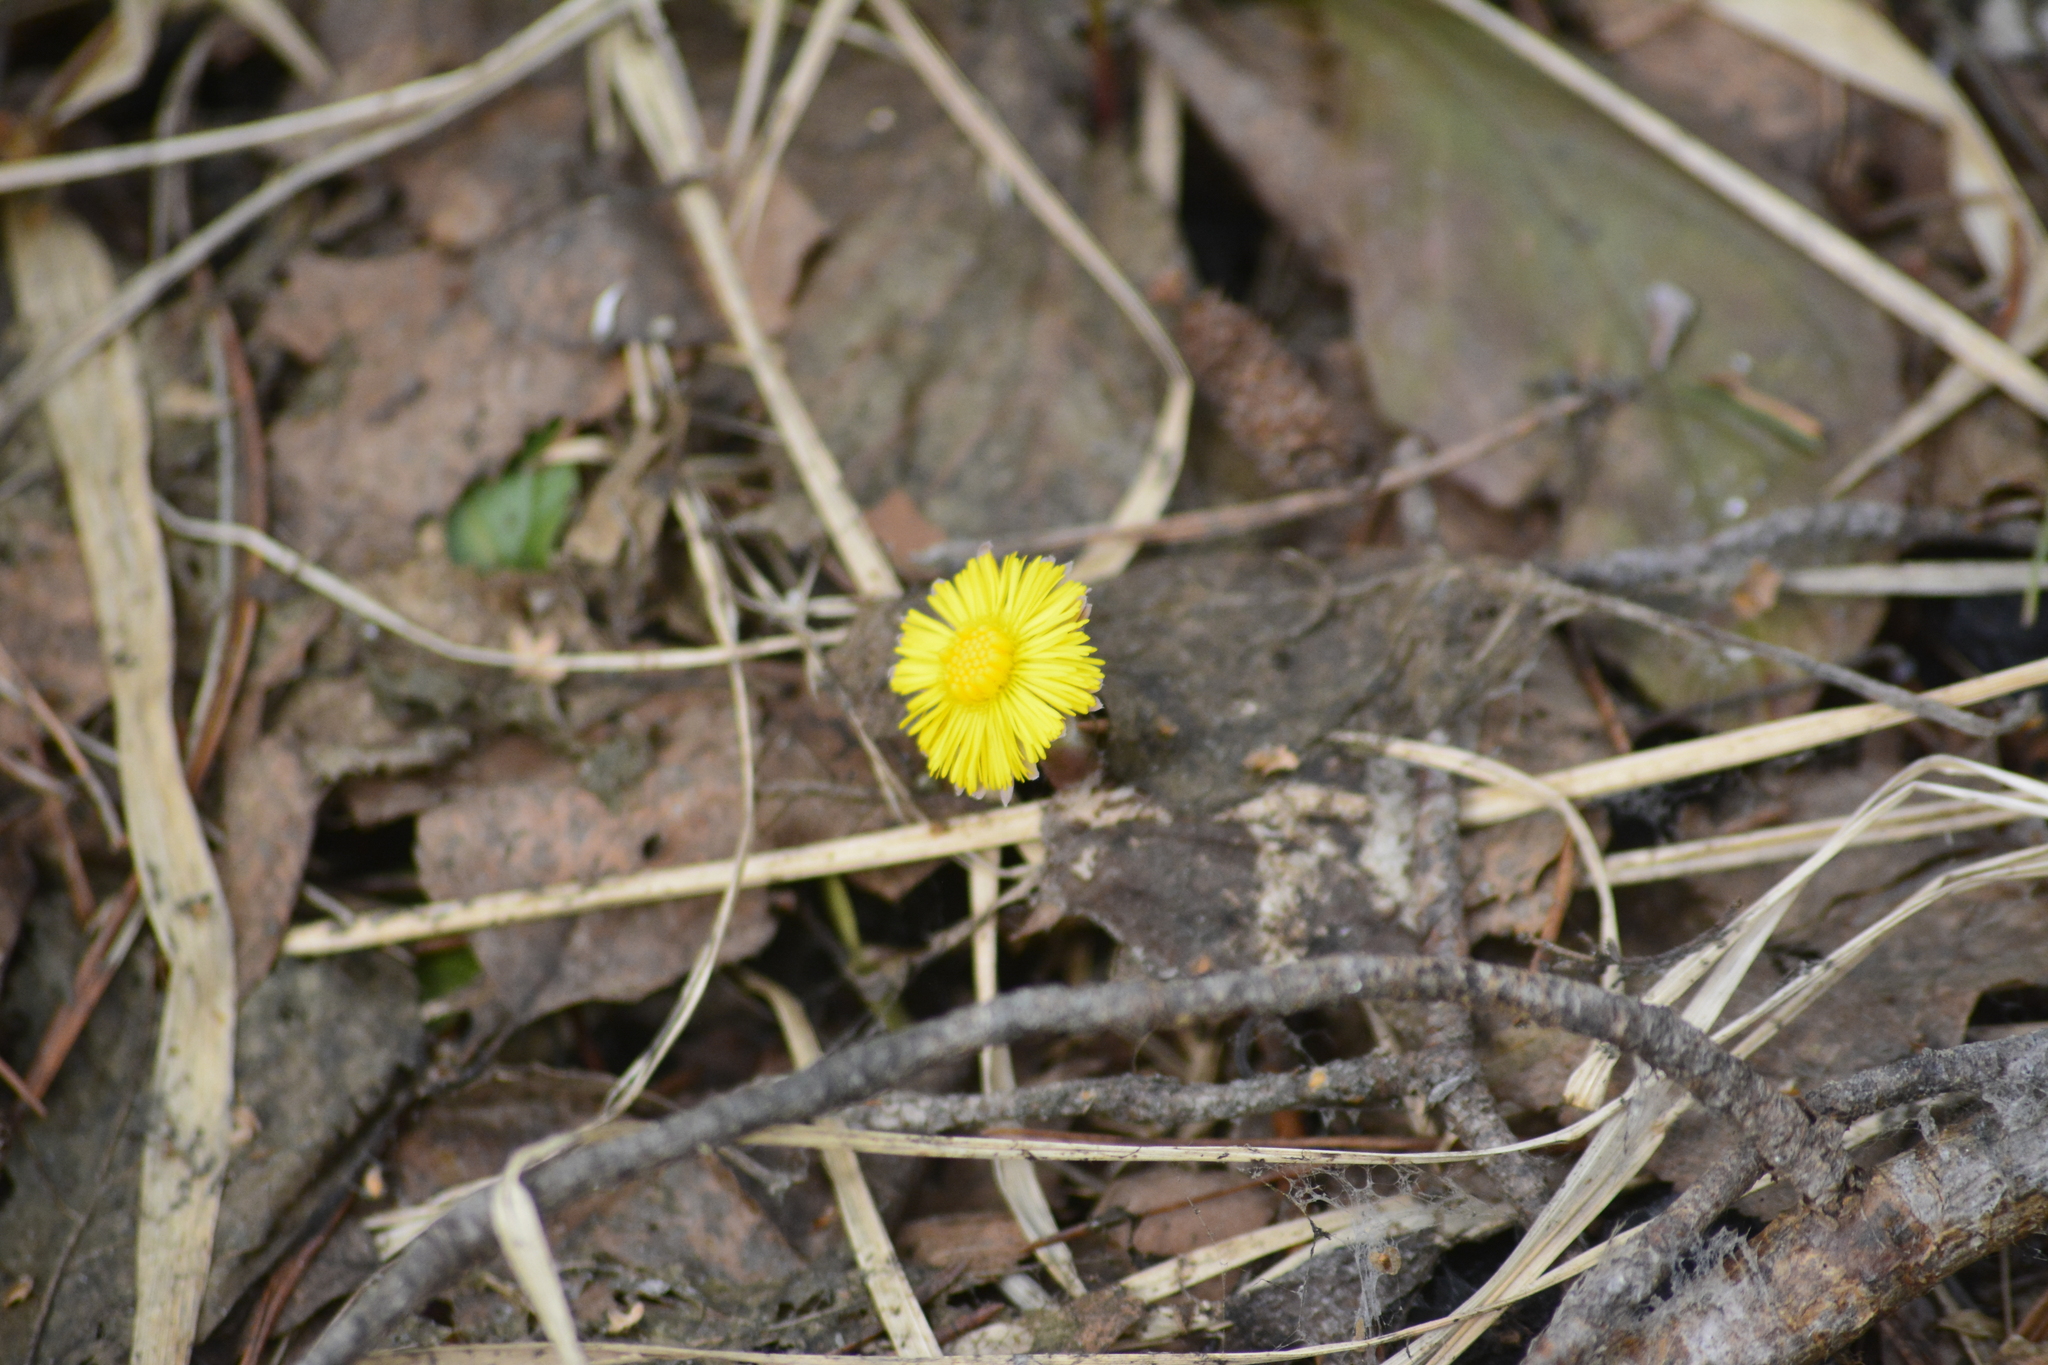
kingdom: Plantae
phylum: Tracheophyta
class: Magnoliopsida
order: Asterales
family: Asteraceae
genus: Tussilago
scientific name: Tussilago farfara
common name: Coltsfoot
